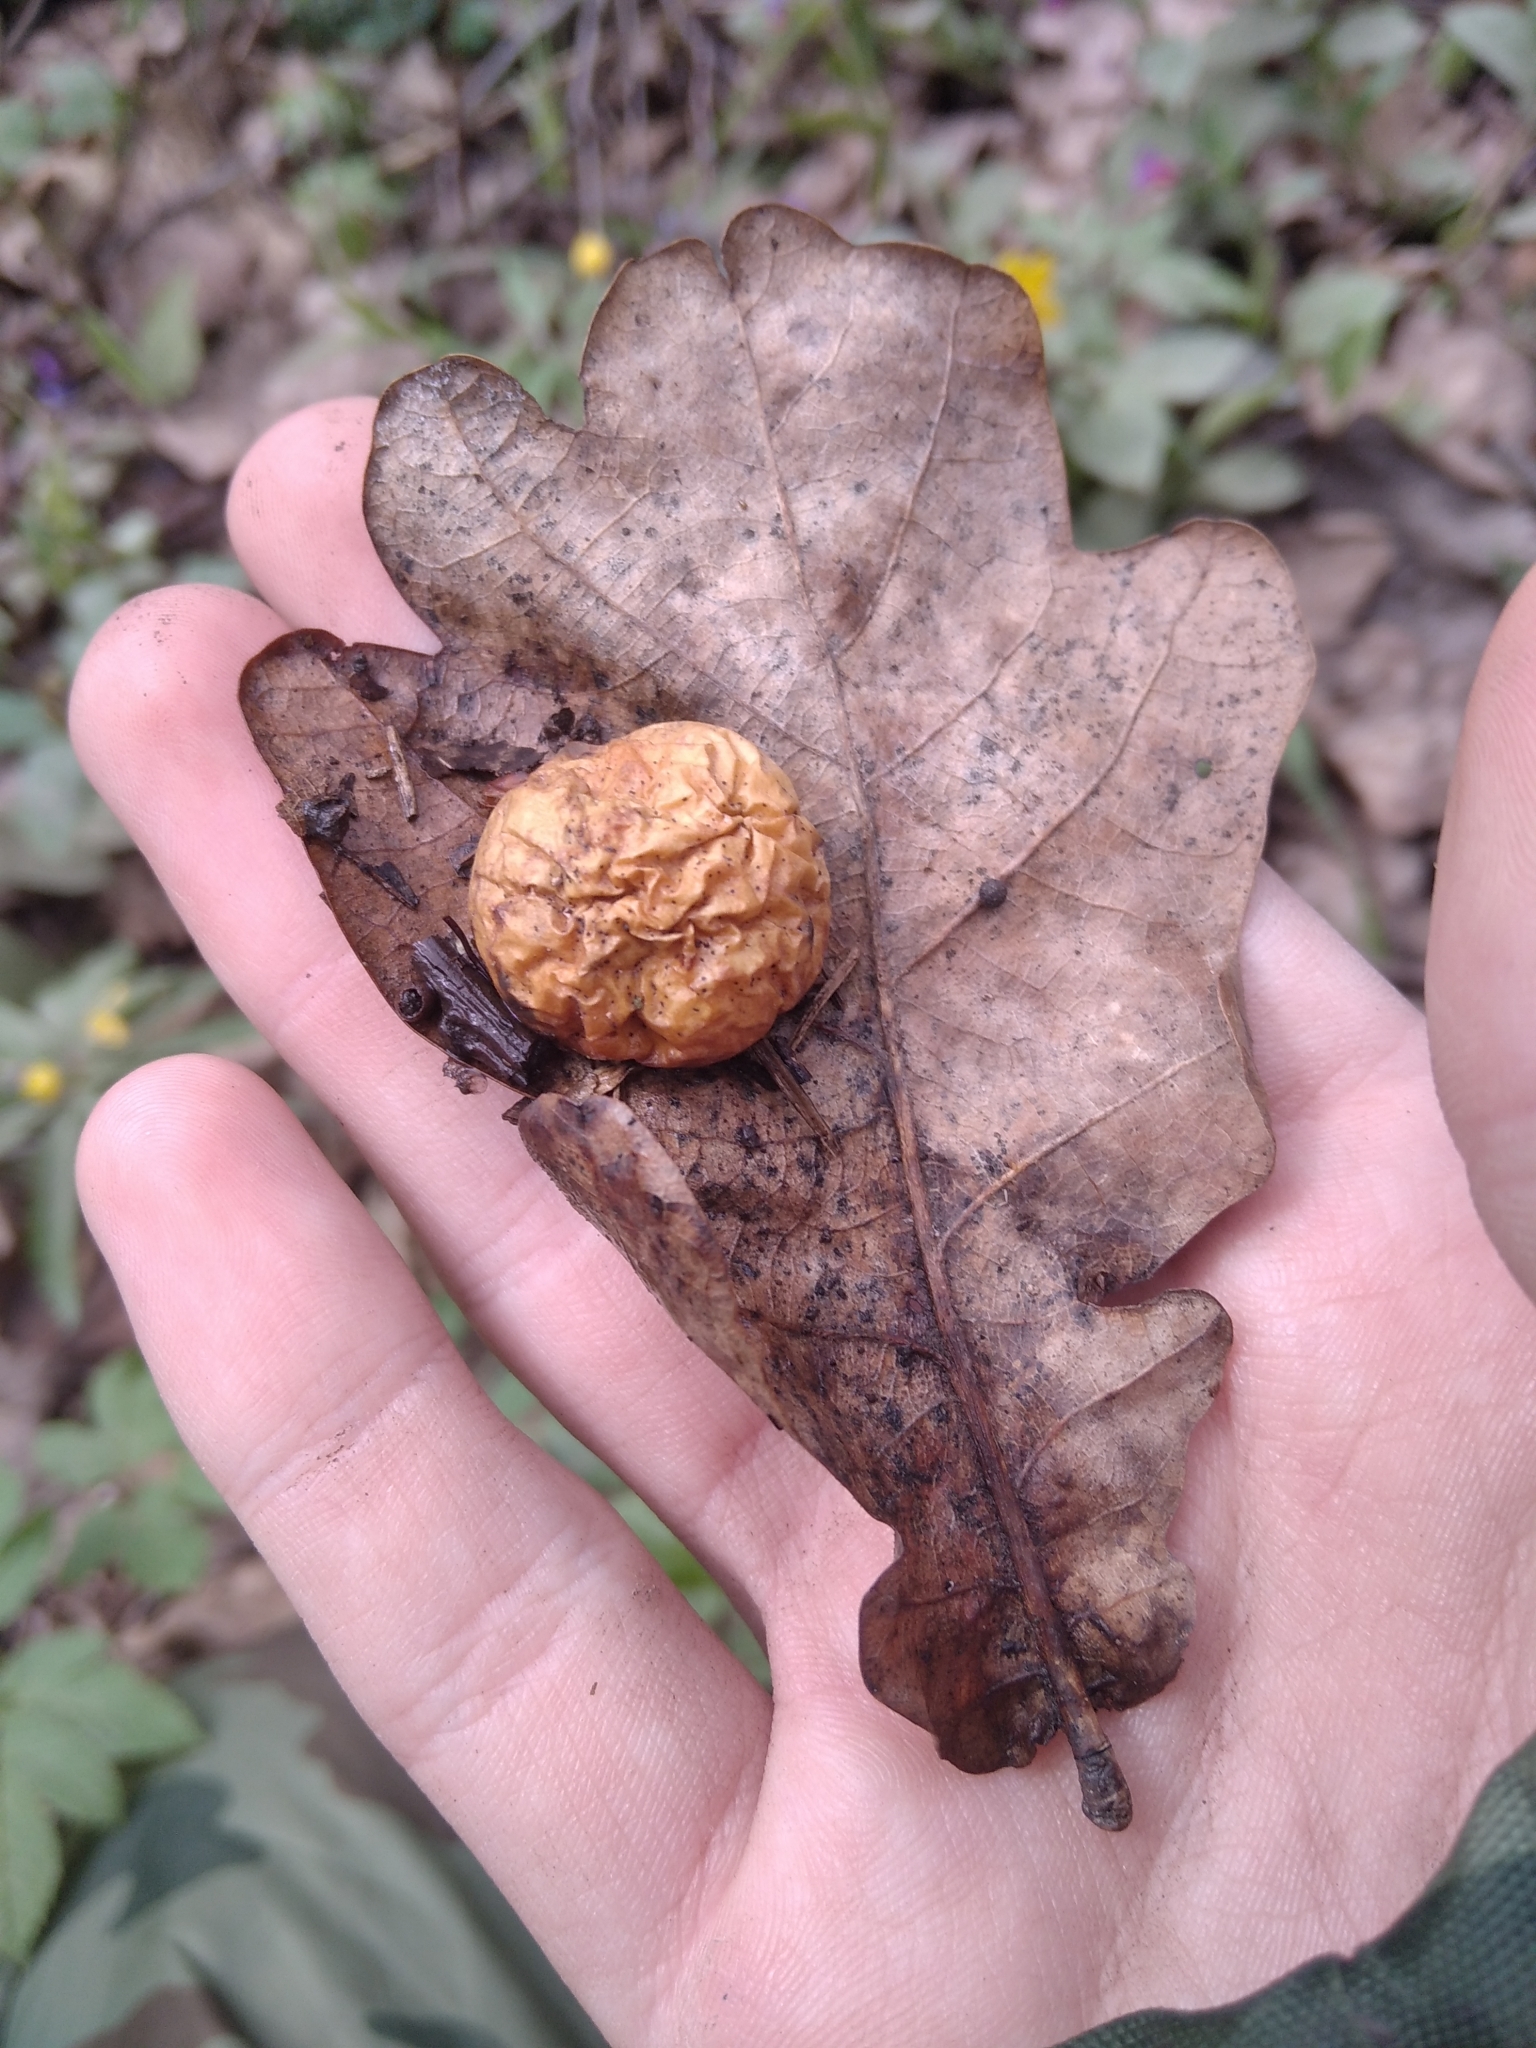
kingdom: Animalia
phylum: Arthropoda
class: Insecta
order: Hymenoptera
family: Cynipidae
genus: Cynips
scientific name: Cynips quercusfolii
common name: Cherry gall
